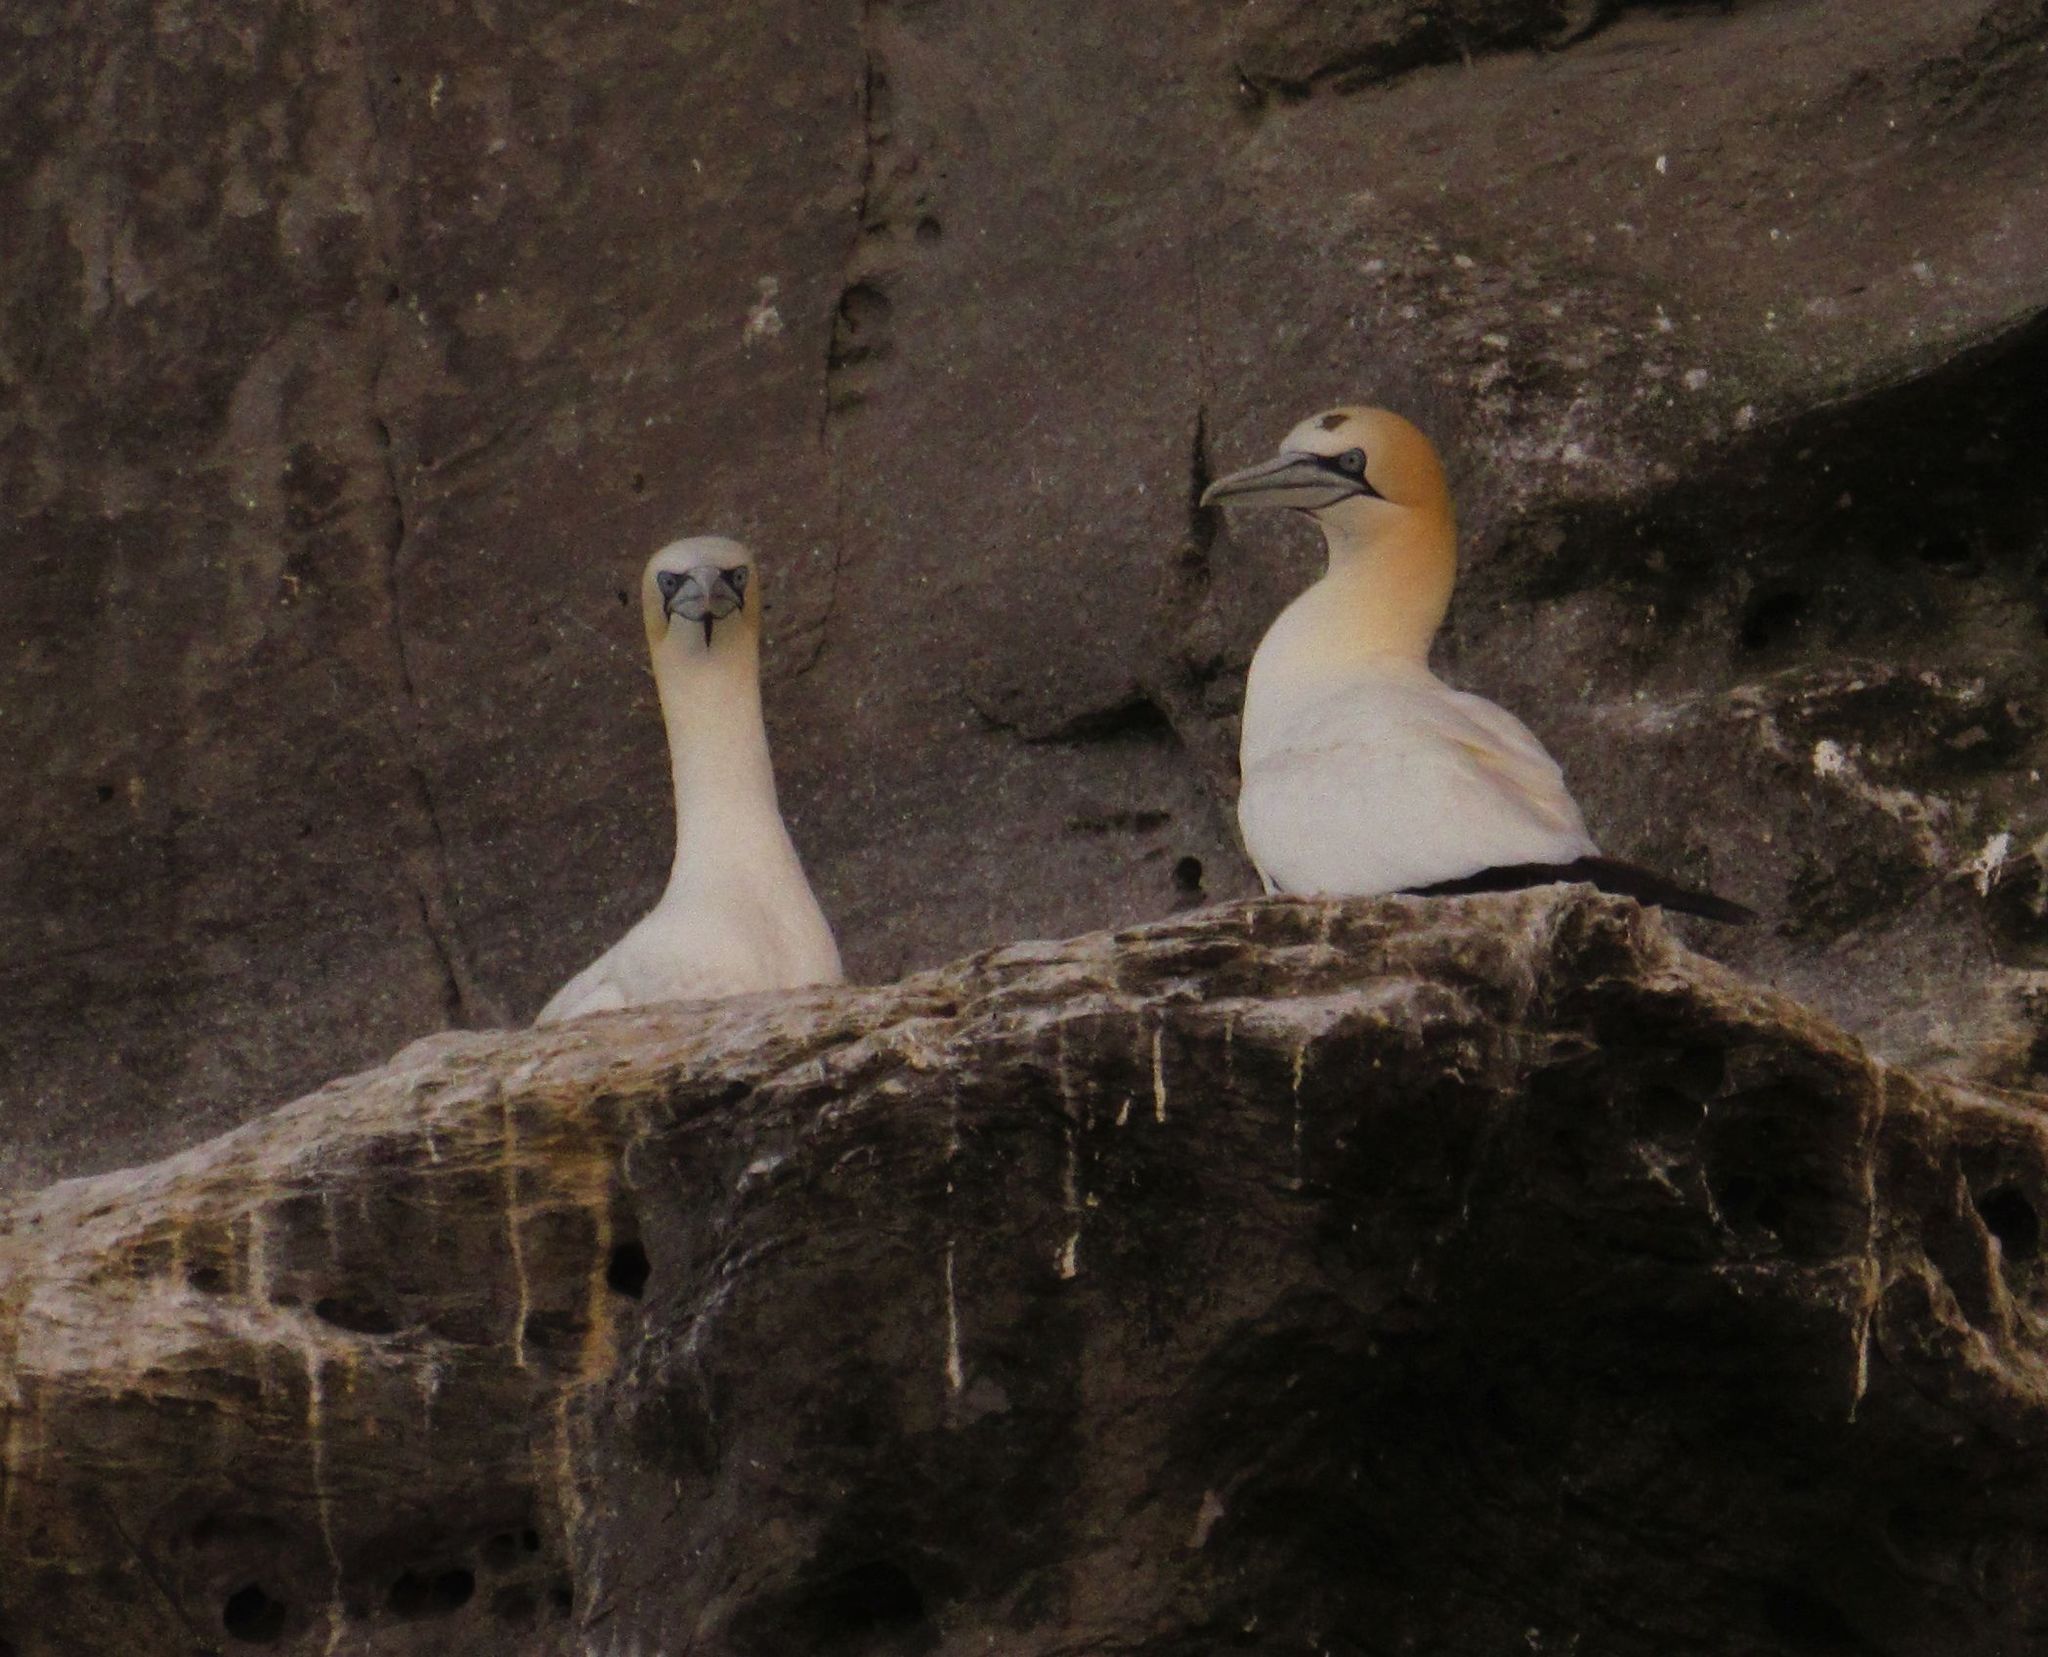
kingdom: Animalia
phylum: Chordata
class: Aves
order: Suliformes
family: Sulidae
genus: Morus
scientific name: Morus bassanus
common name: Northern gannet
